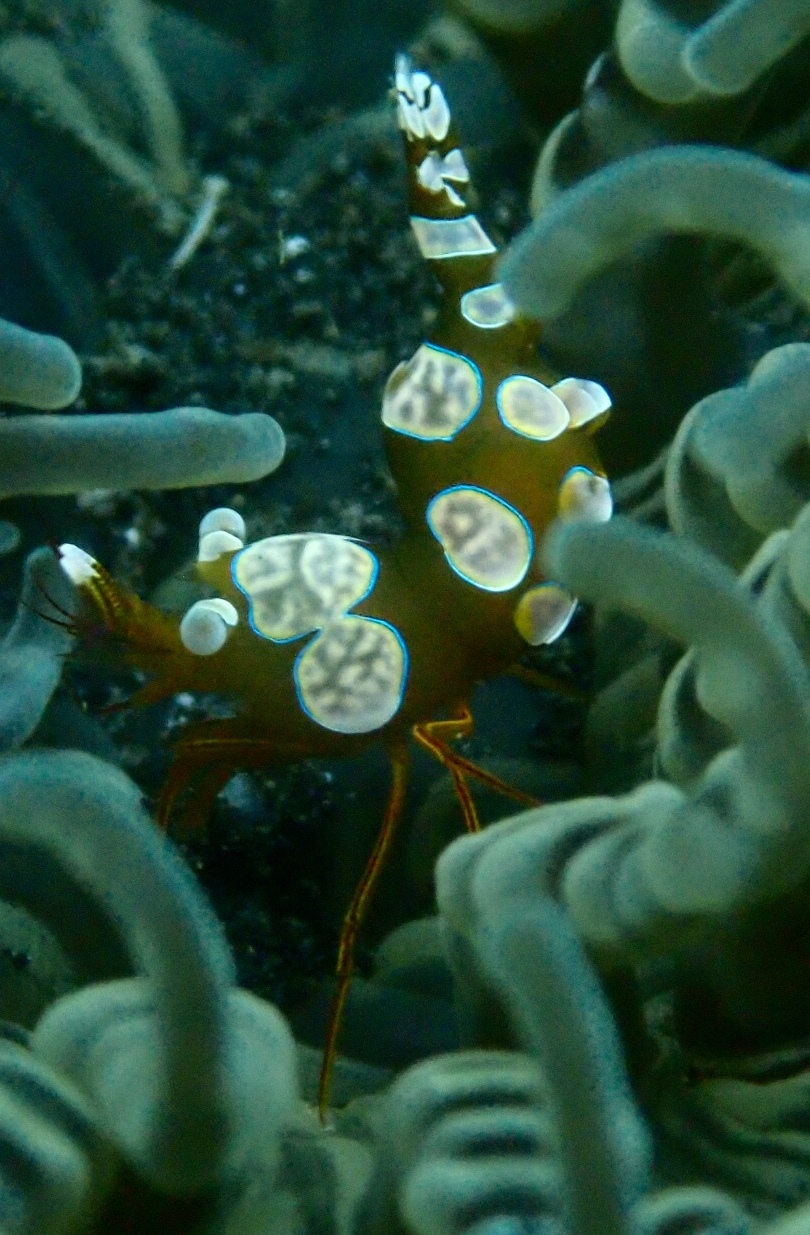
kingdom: Animalia
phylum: Arthropoda
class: Malacostraca
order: Decapoda
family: Thoridae
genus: Thor
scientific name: Thor amboinensis
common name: Squat anemone shrimp
